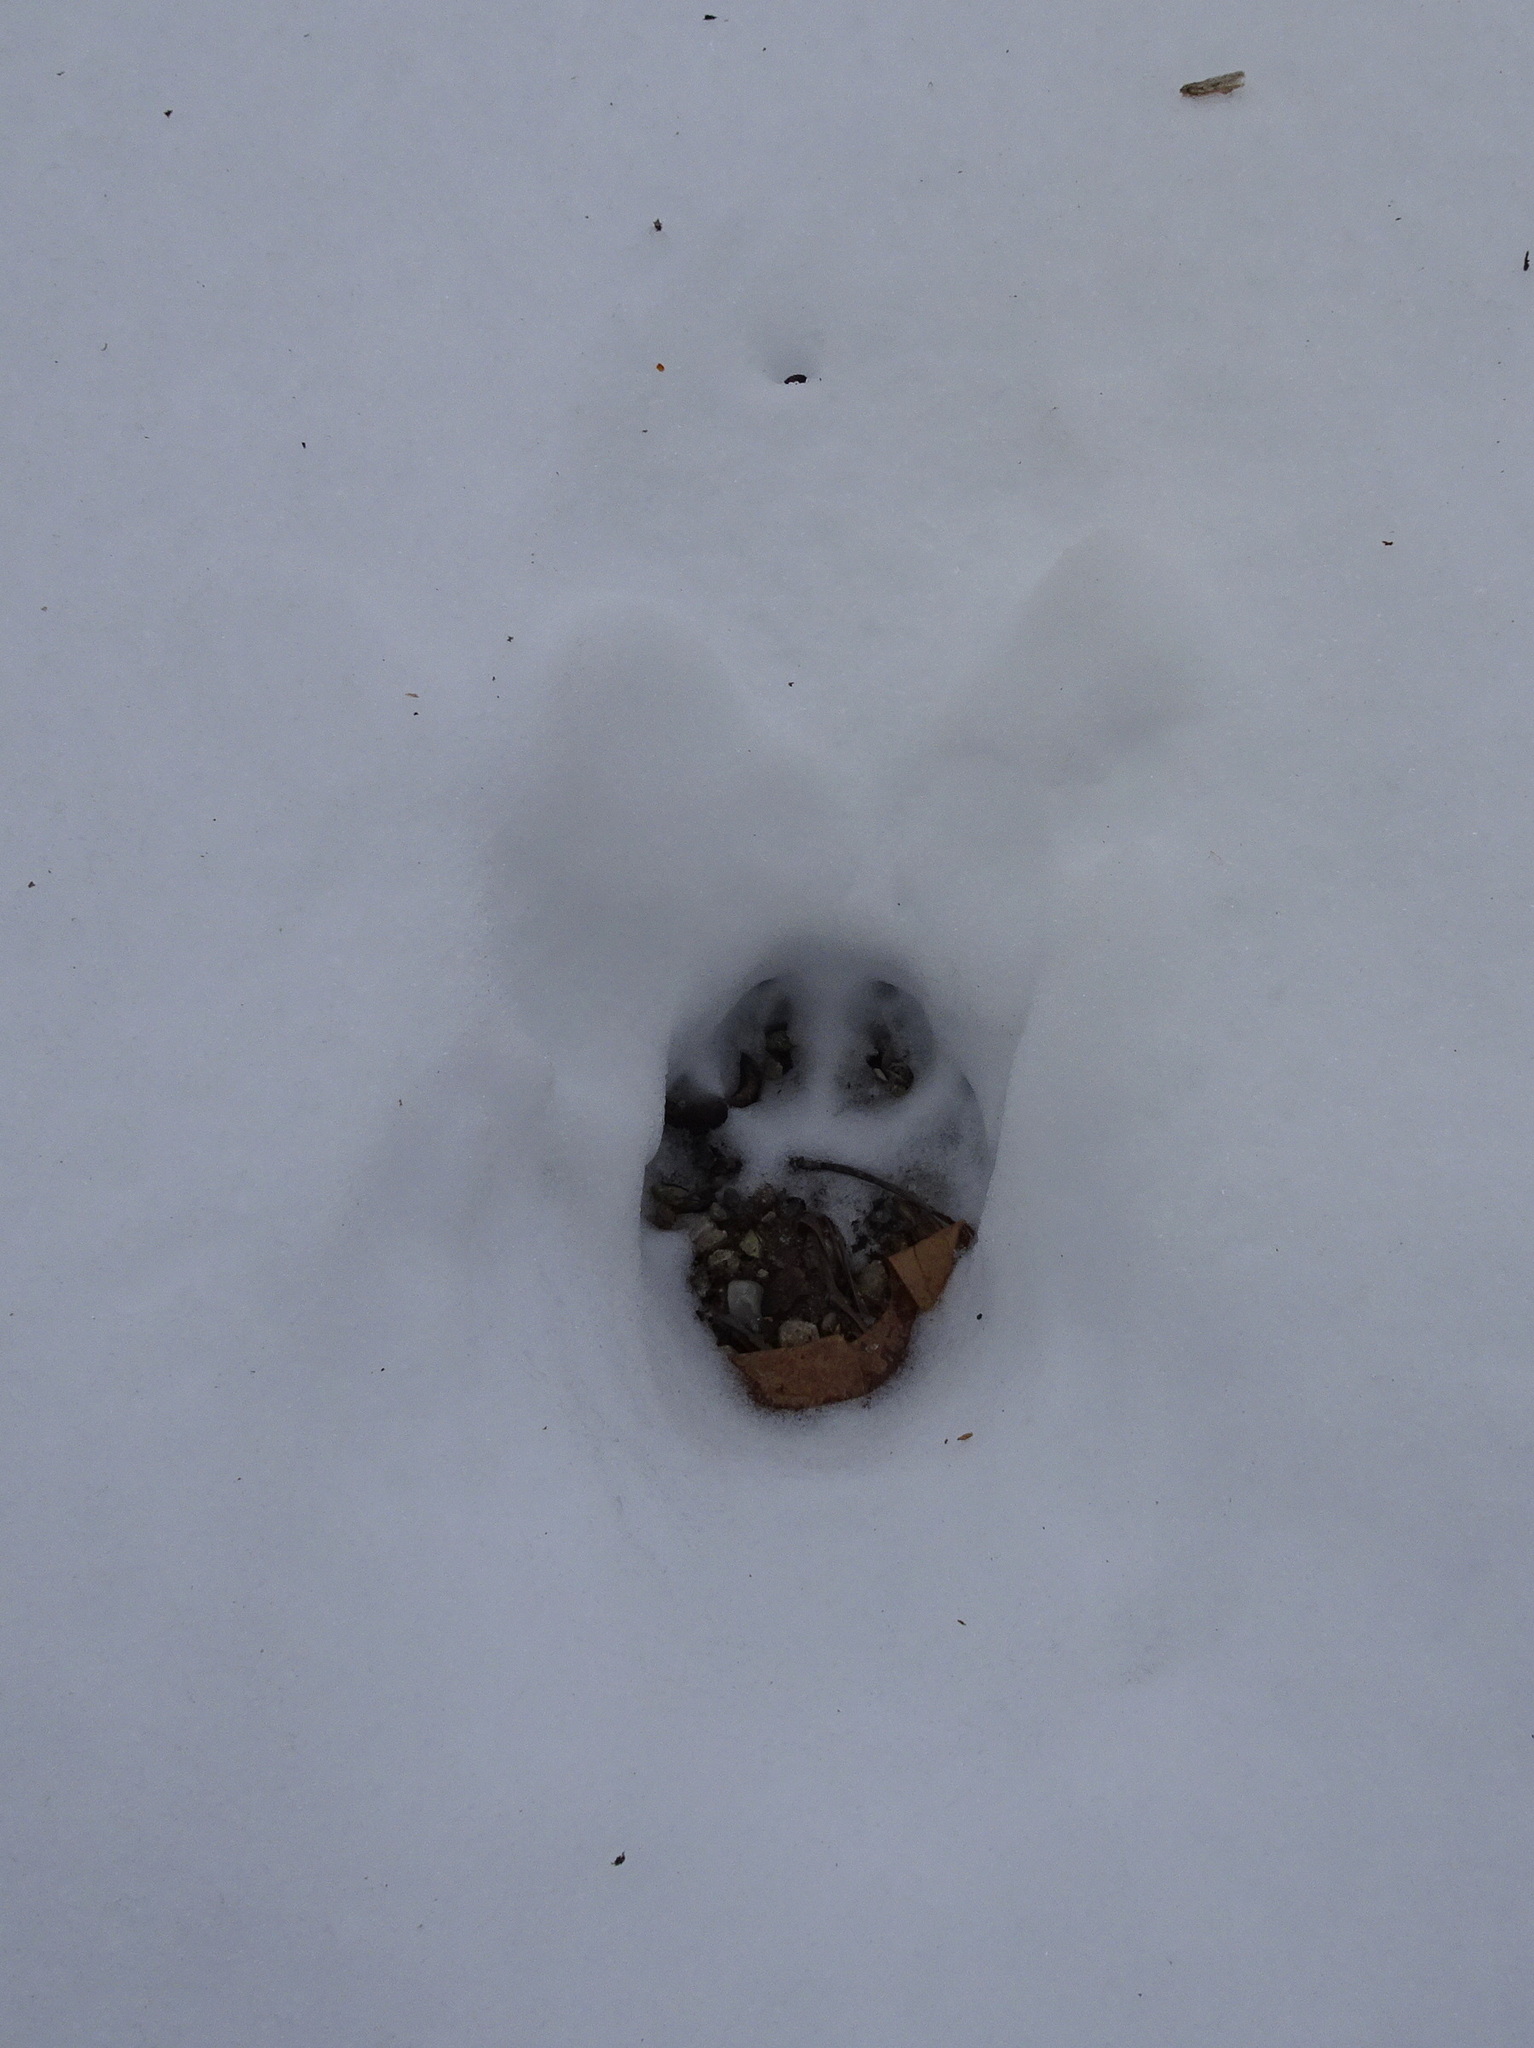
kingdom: Animalia
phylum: Chordata
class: Mammalia
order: Carnivora
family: Canidae
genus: Canis
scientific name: Canis latrans
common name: Coyote
